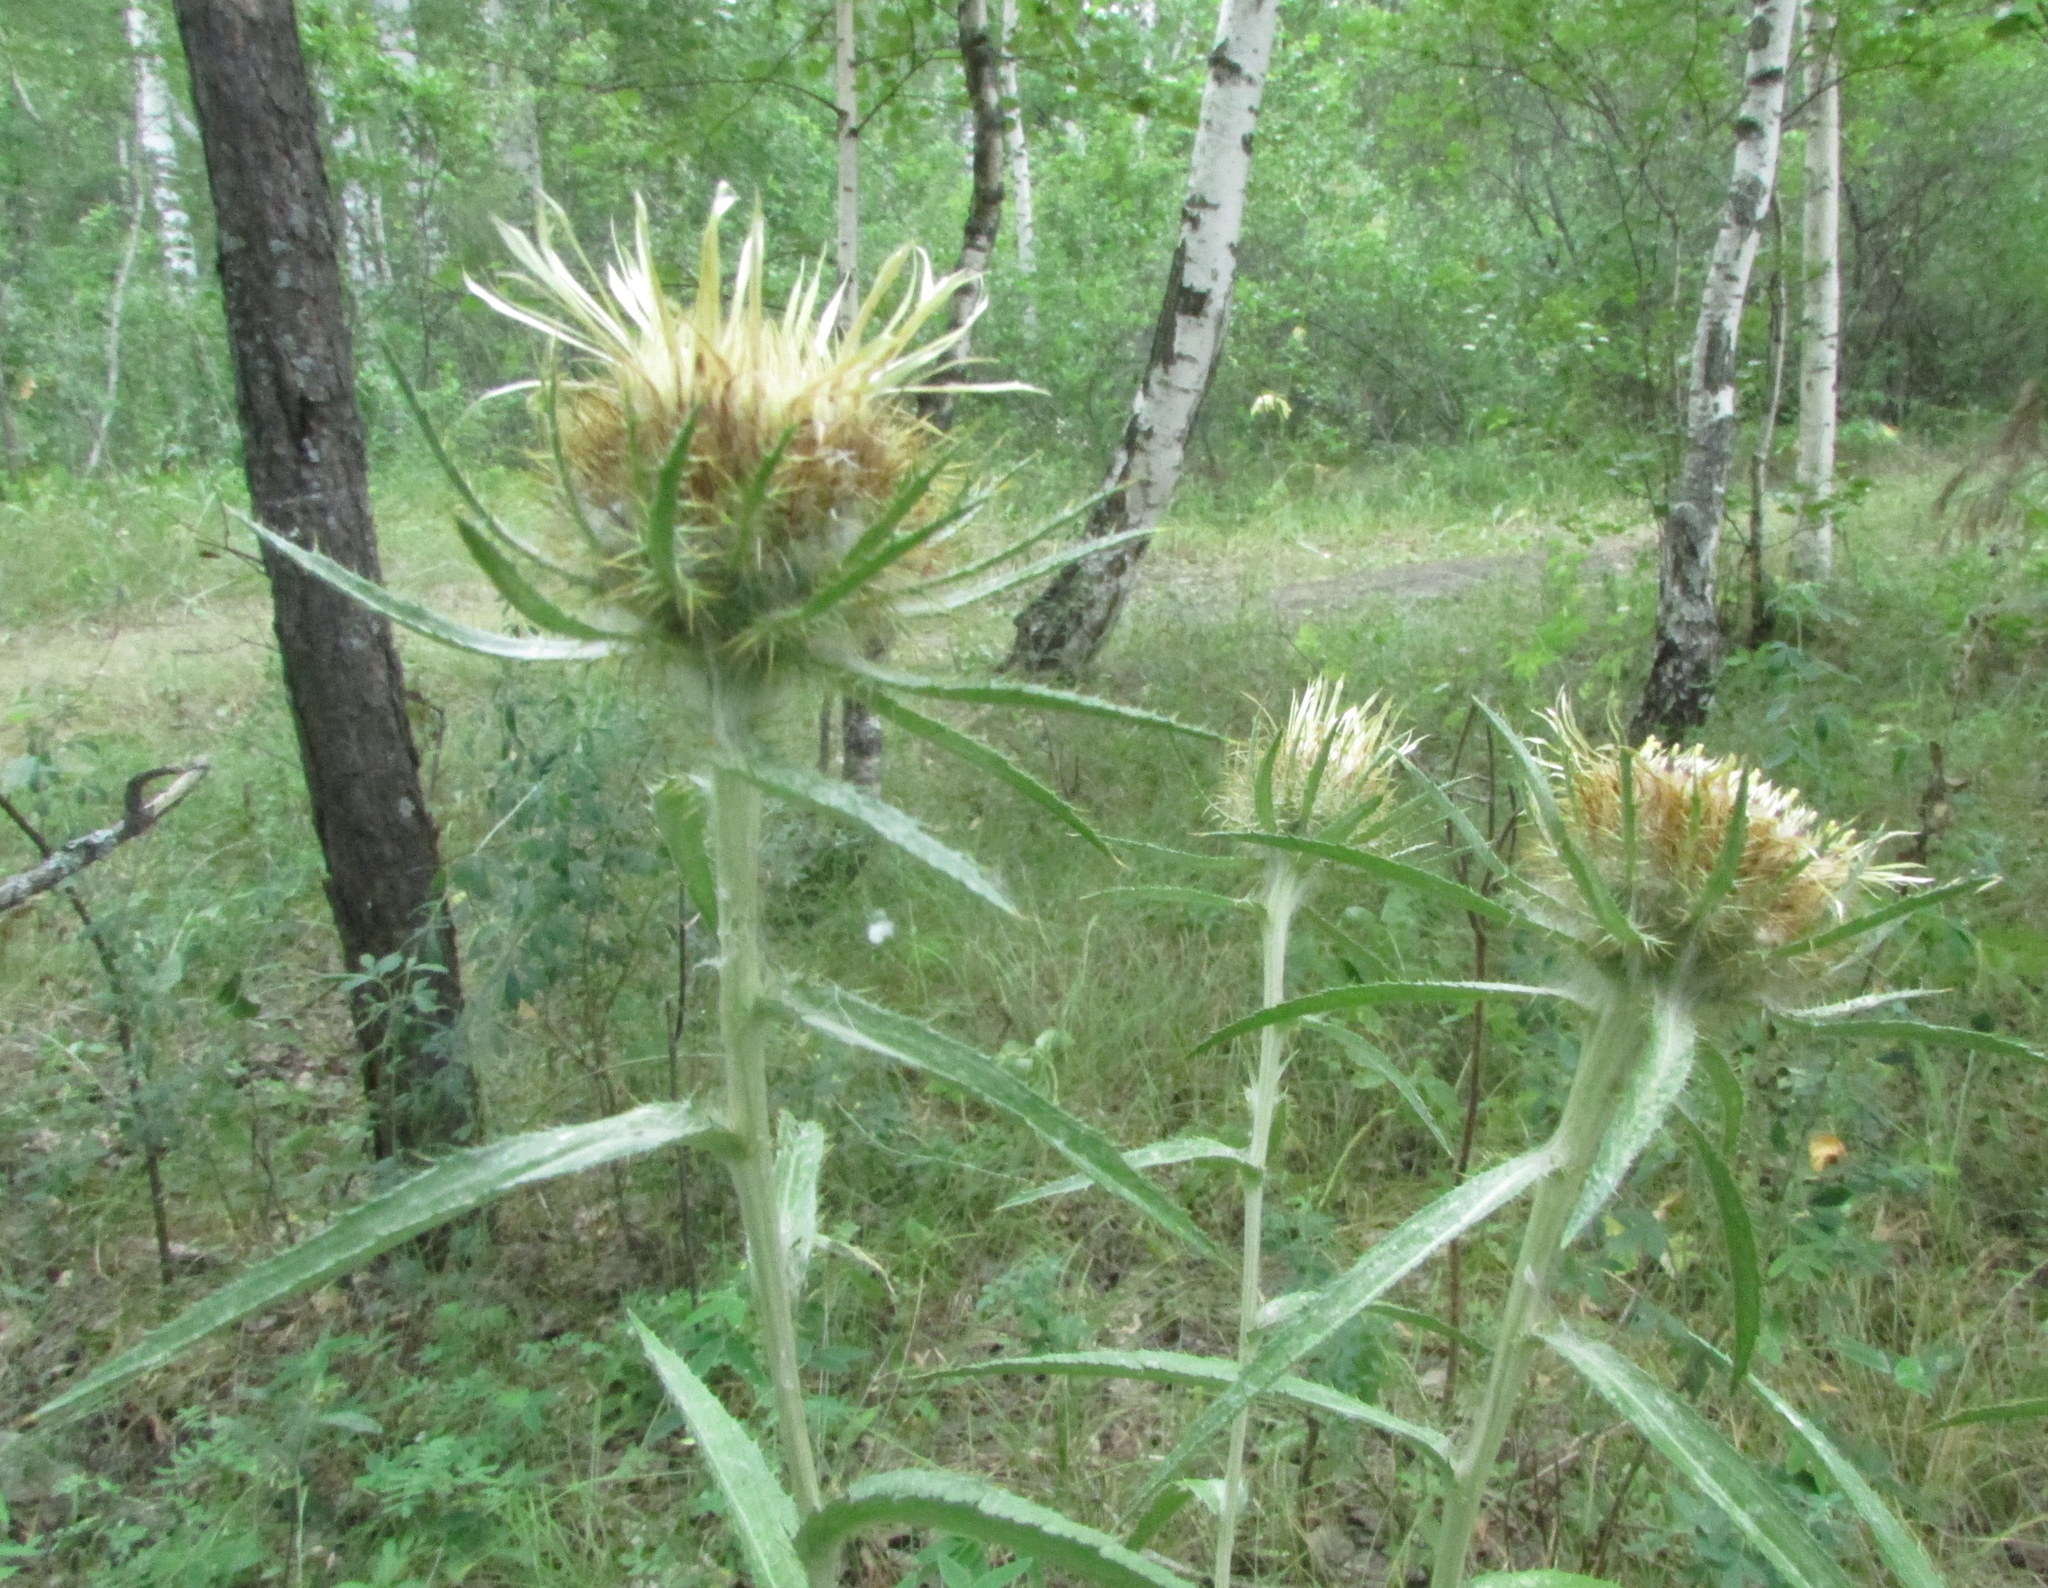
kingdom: Plantae
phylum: Tracheophyta
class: Magnoliopsida
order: Asterales
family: Asteraceae
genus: Carlina
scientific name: Carlina biebersteinii
